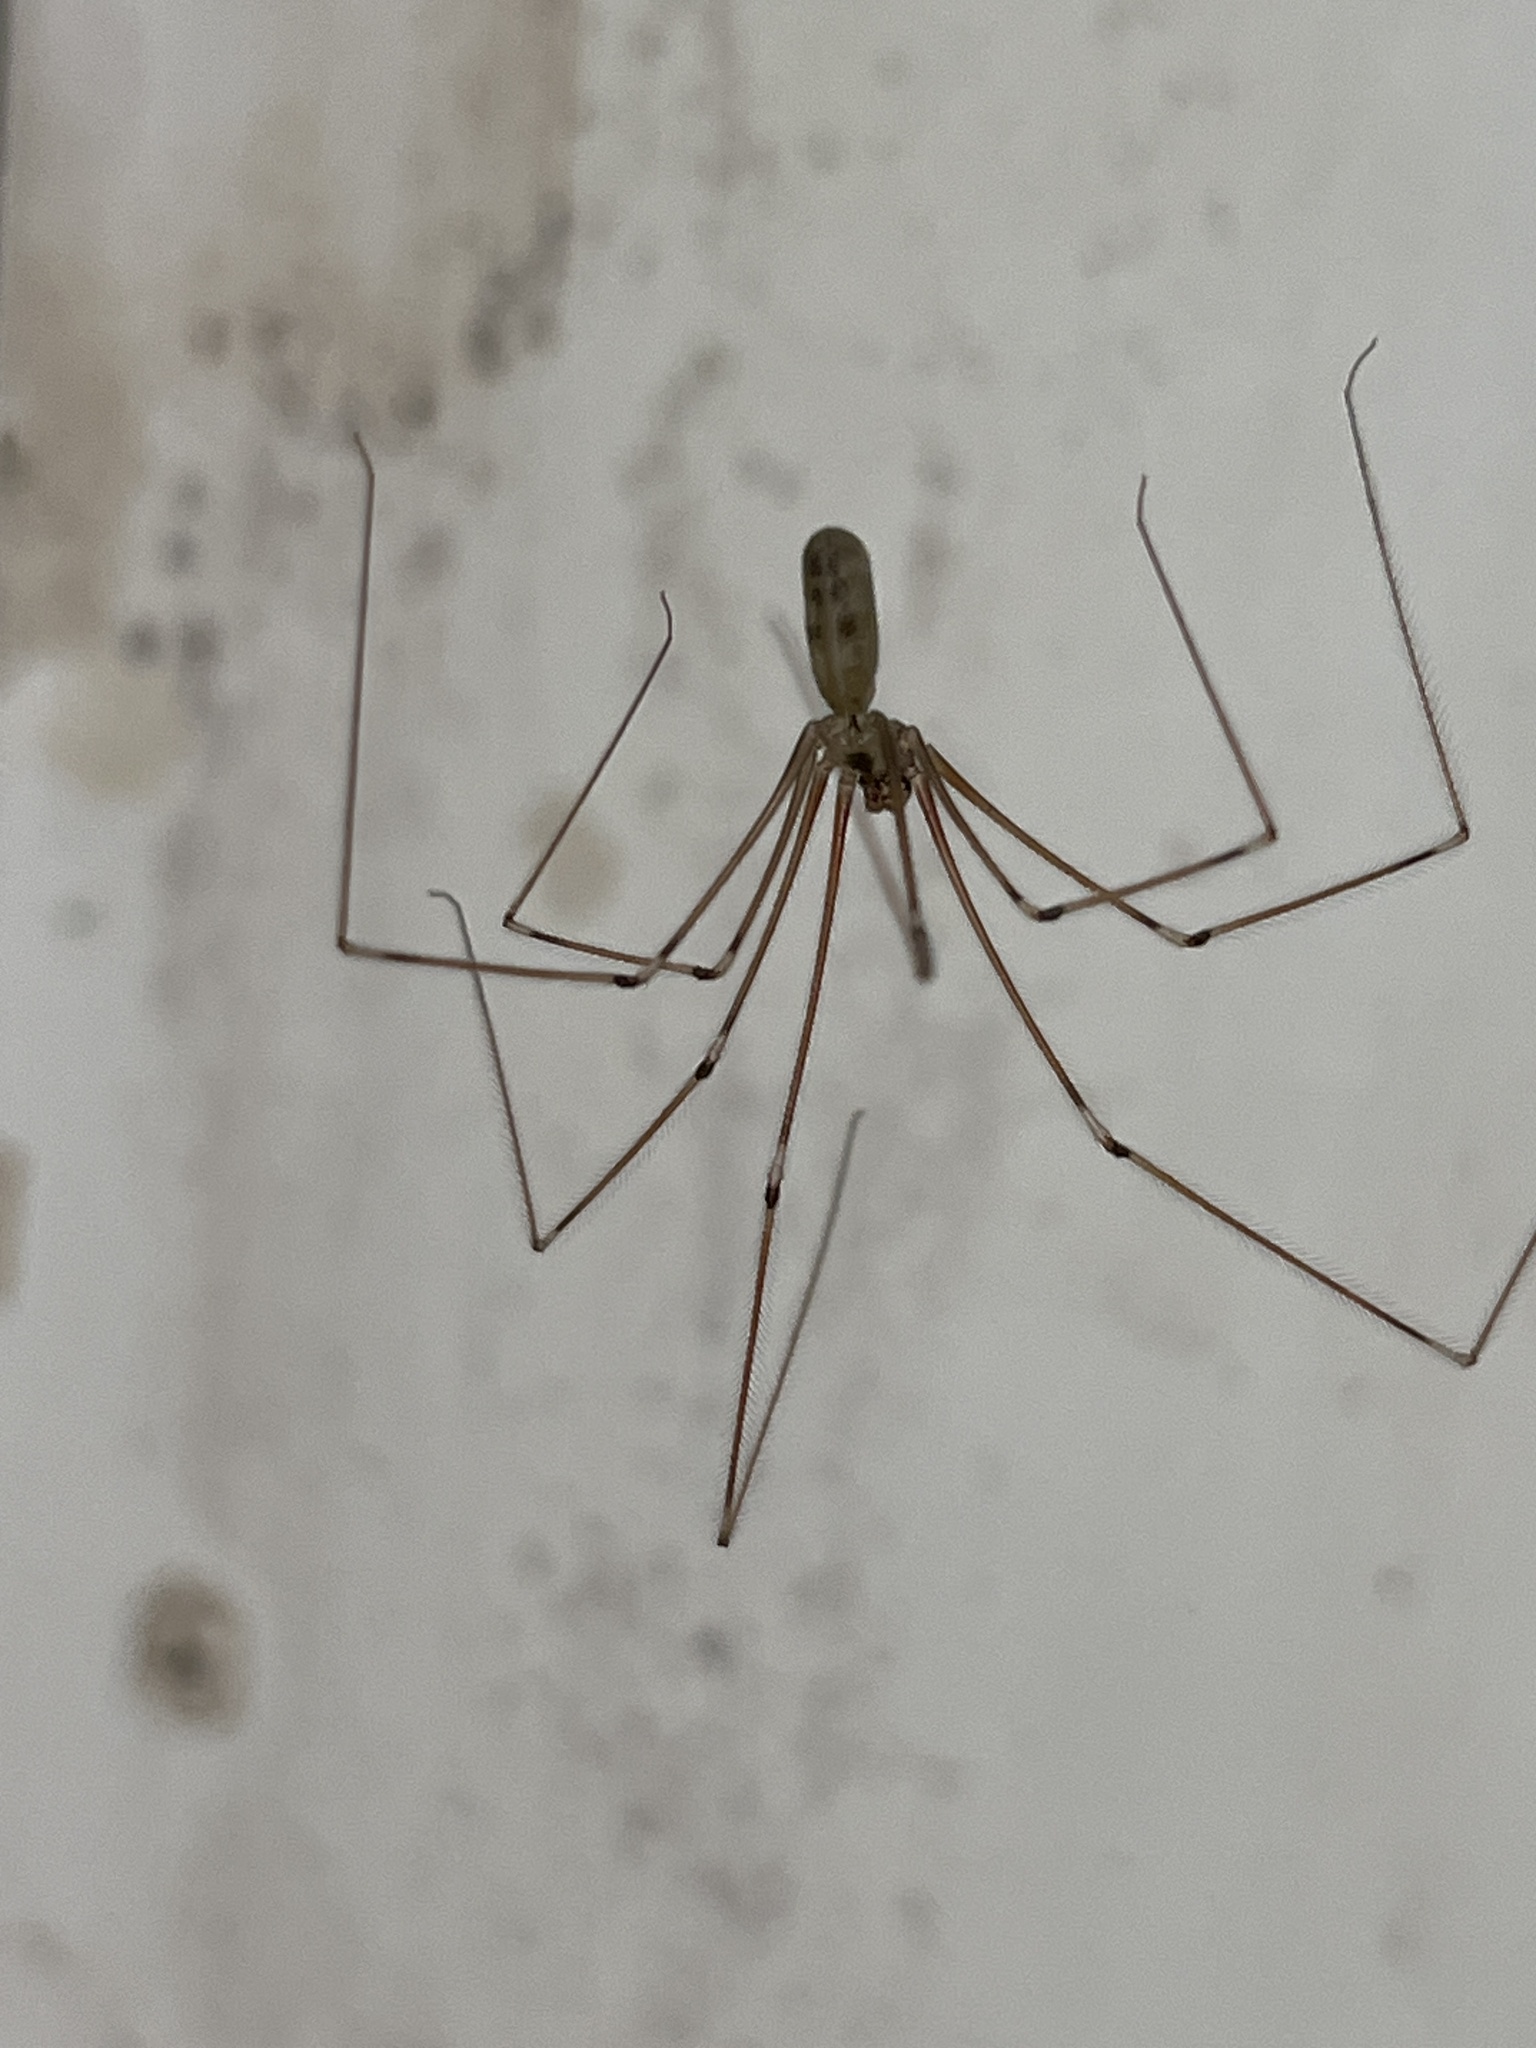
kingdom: Animalia
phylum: Arthropoda
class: Arachnida
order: Araneae
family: Pholcidae
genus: Pholcus
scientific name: Pholcus phalangioides
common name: Longbodied cellar spider
